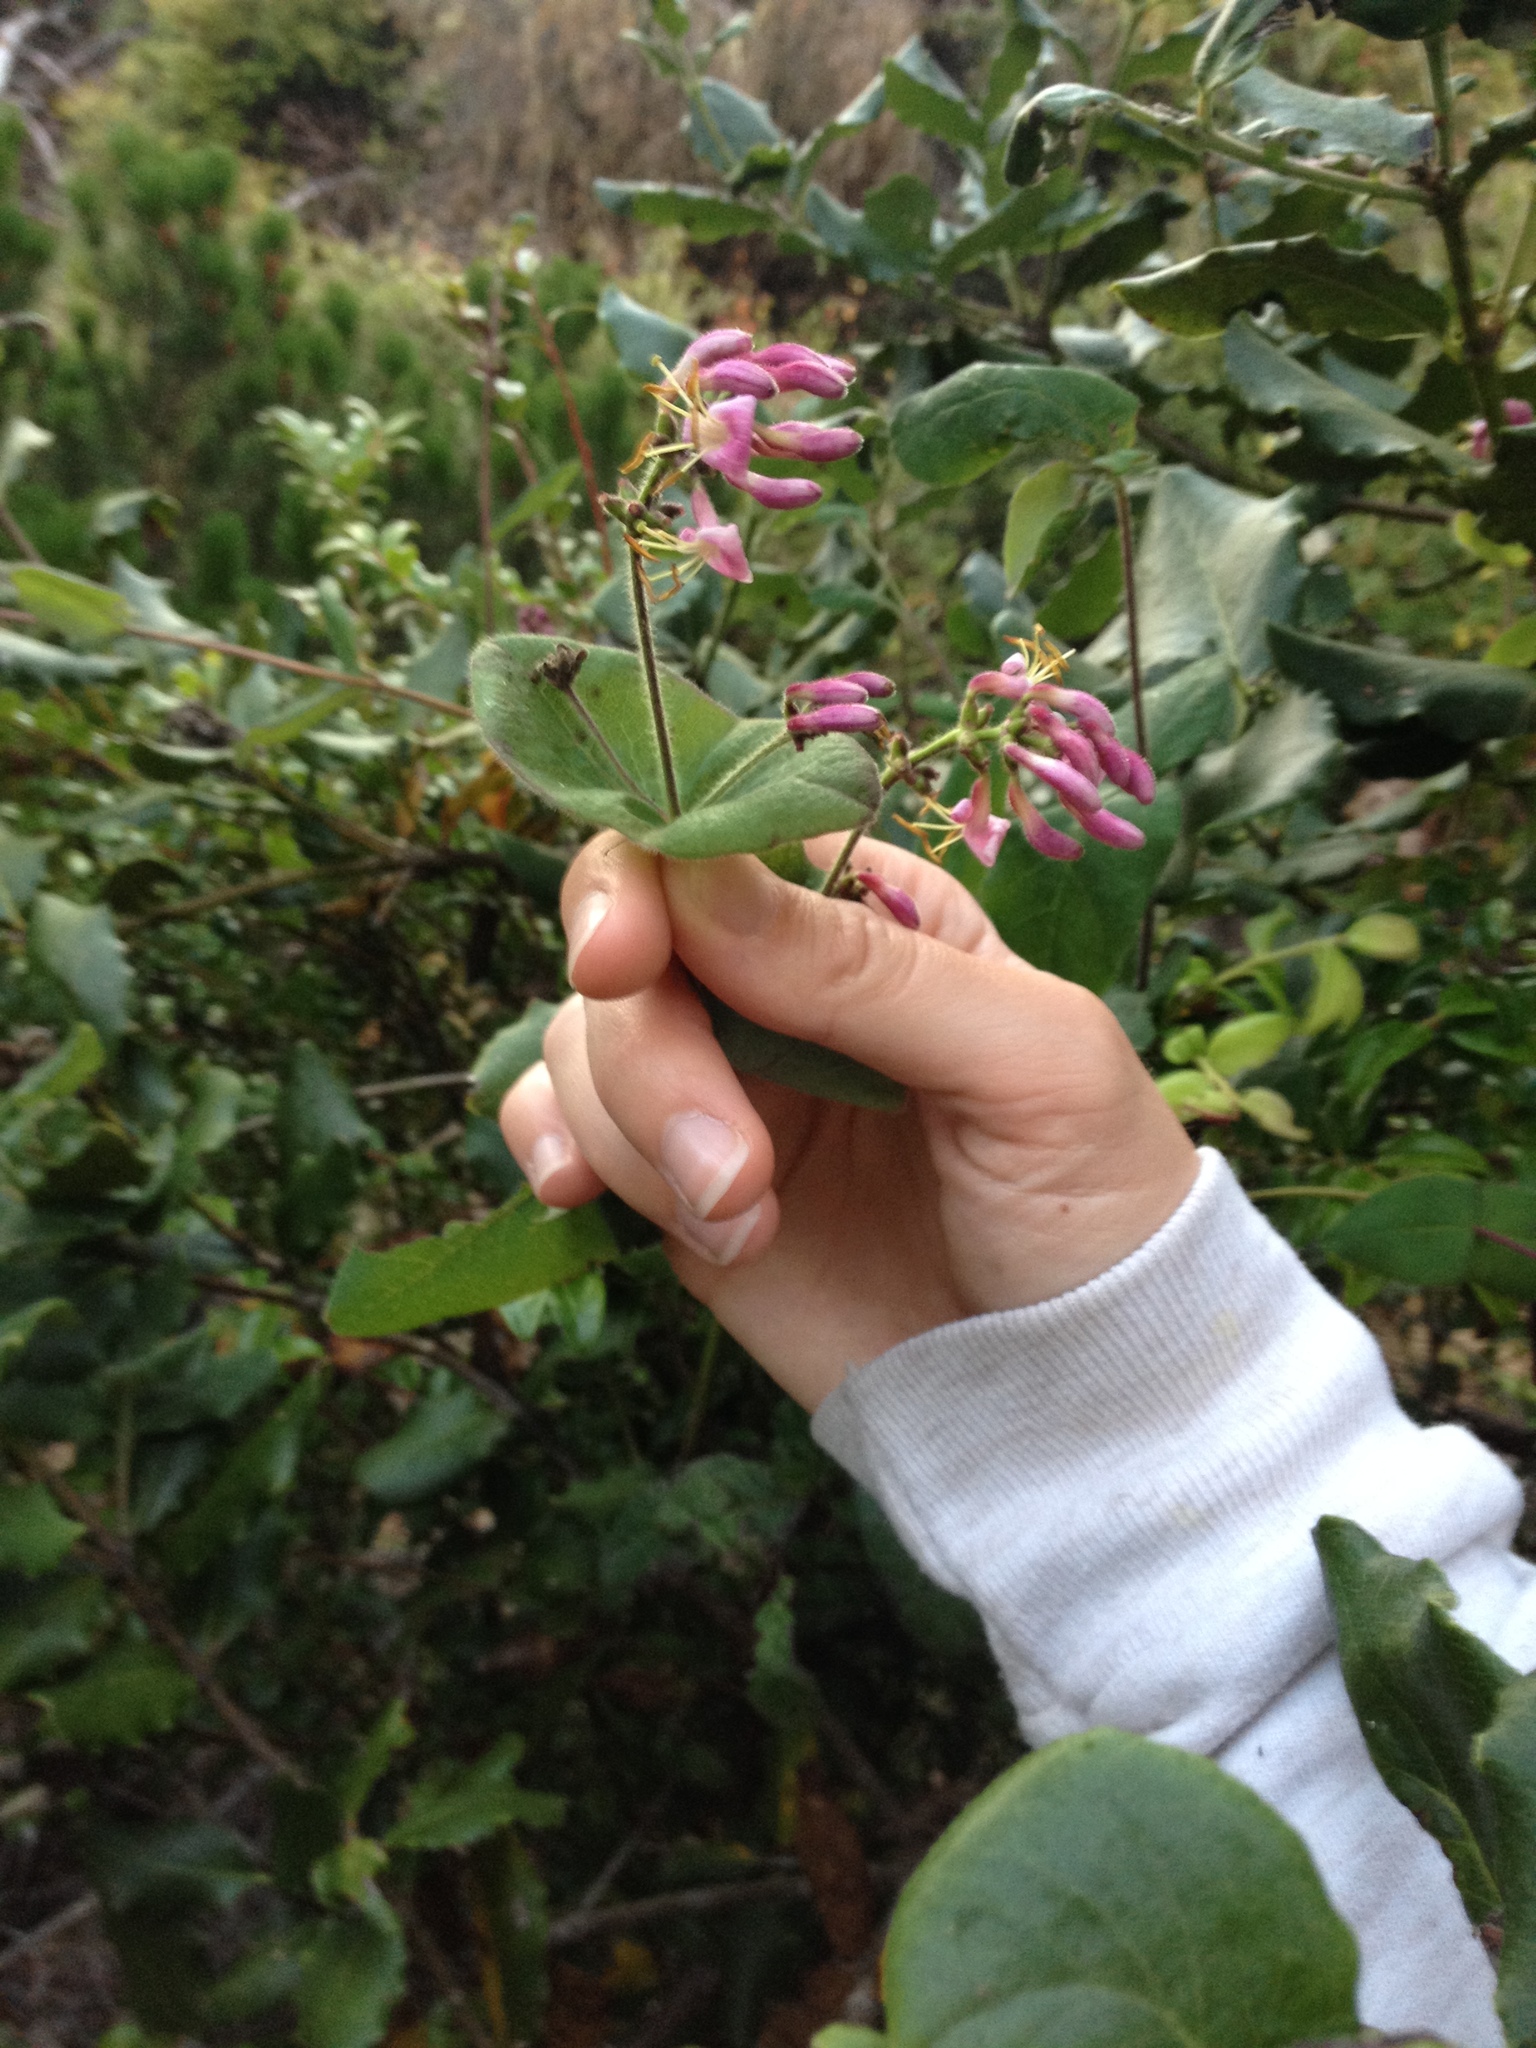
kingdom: Plantae
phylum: Tracheophyta
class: Magnoliopsida
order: Dipsacales
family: Caprifoliaceae
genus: Lonicera
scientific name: Lonicera hispidula
